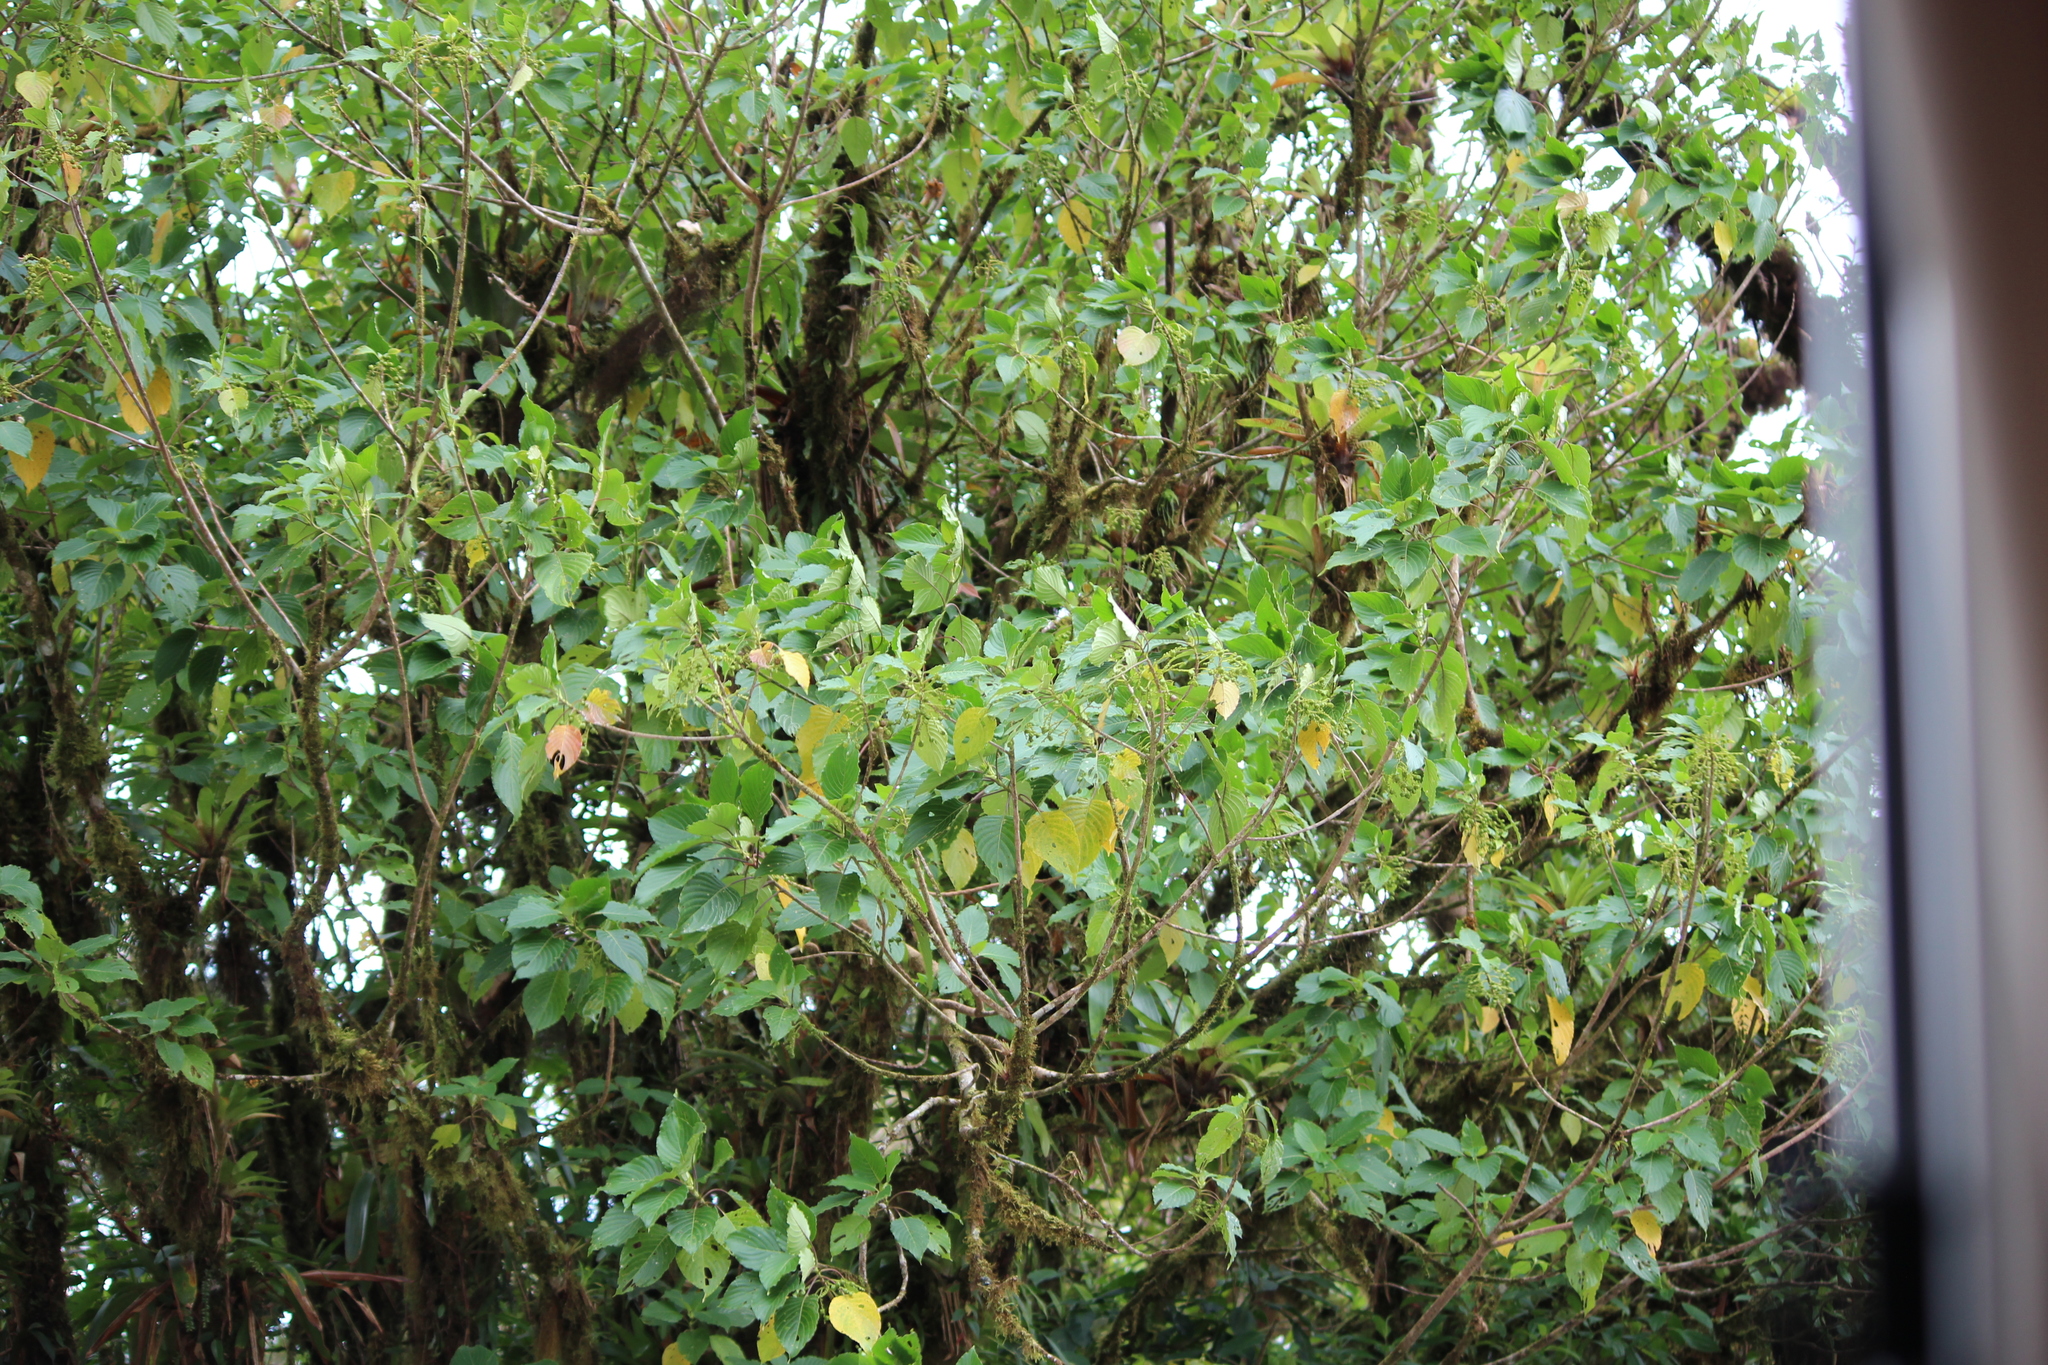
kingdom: Plantae
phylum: Tracheophyta
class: Magnoliopsida
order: Gentianales
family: Rubiaceae
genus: Tournefortiopsis
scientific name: Tournefortiopsis crispiflora
